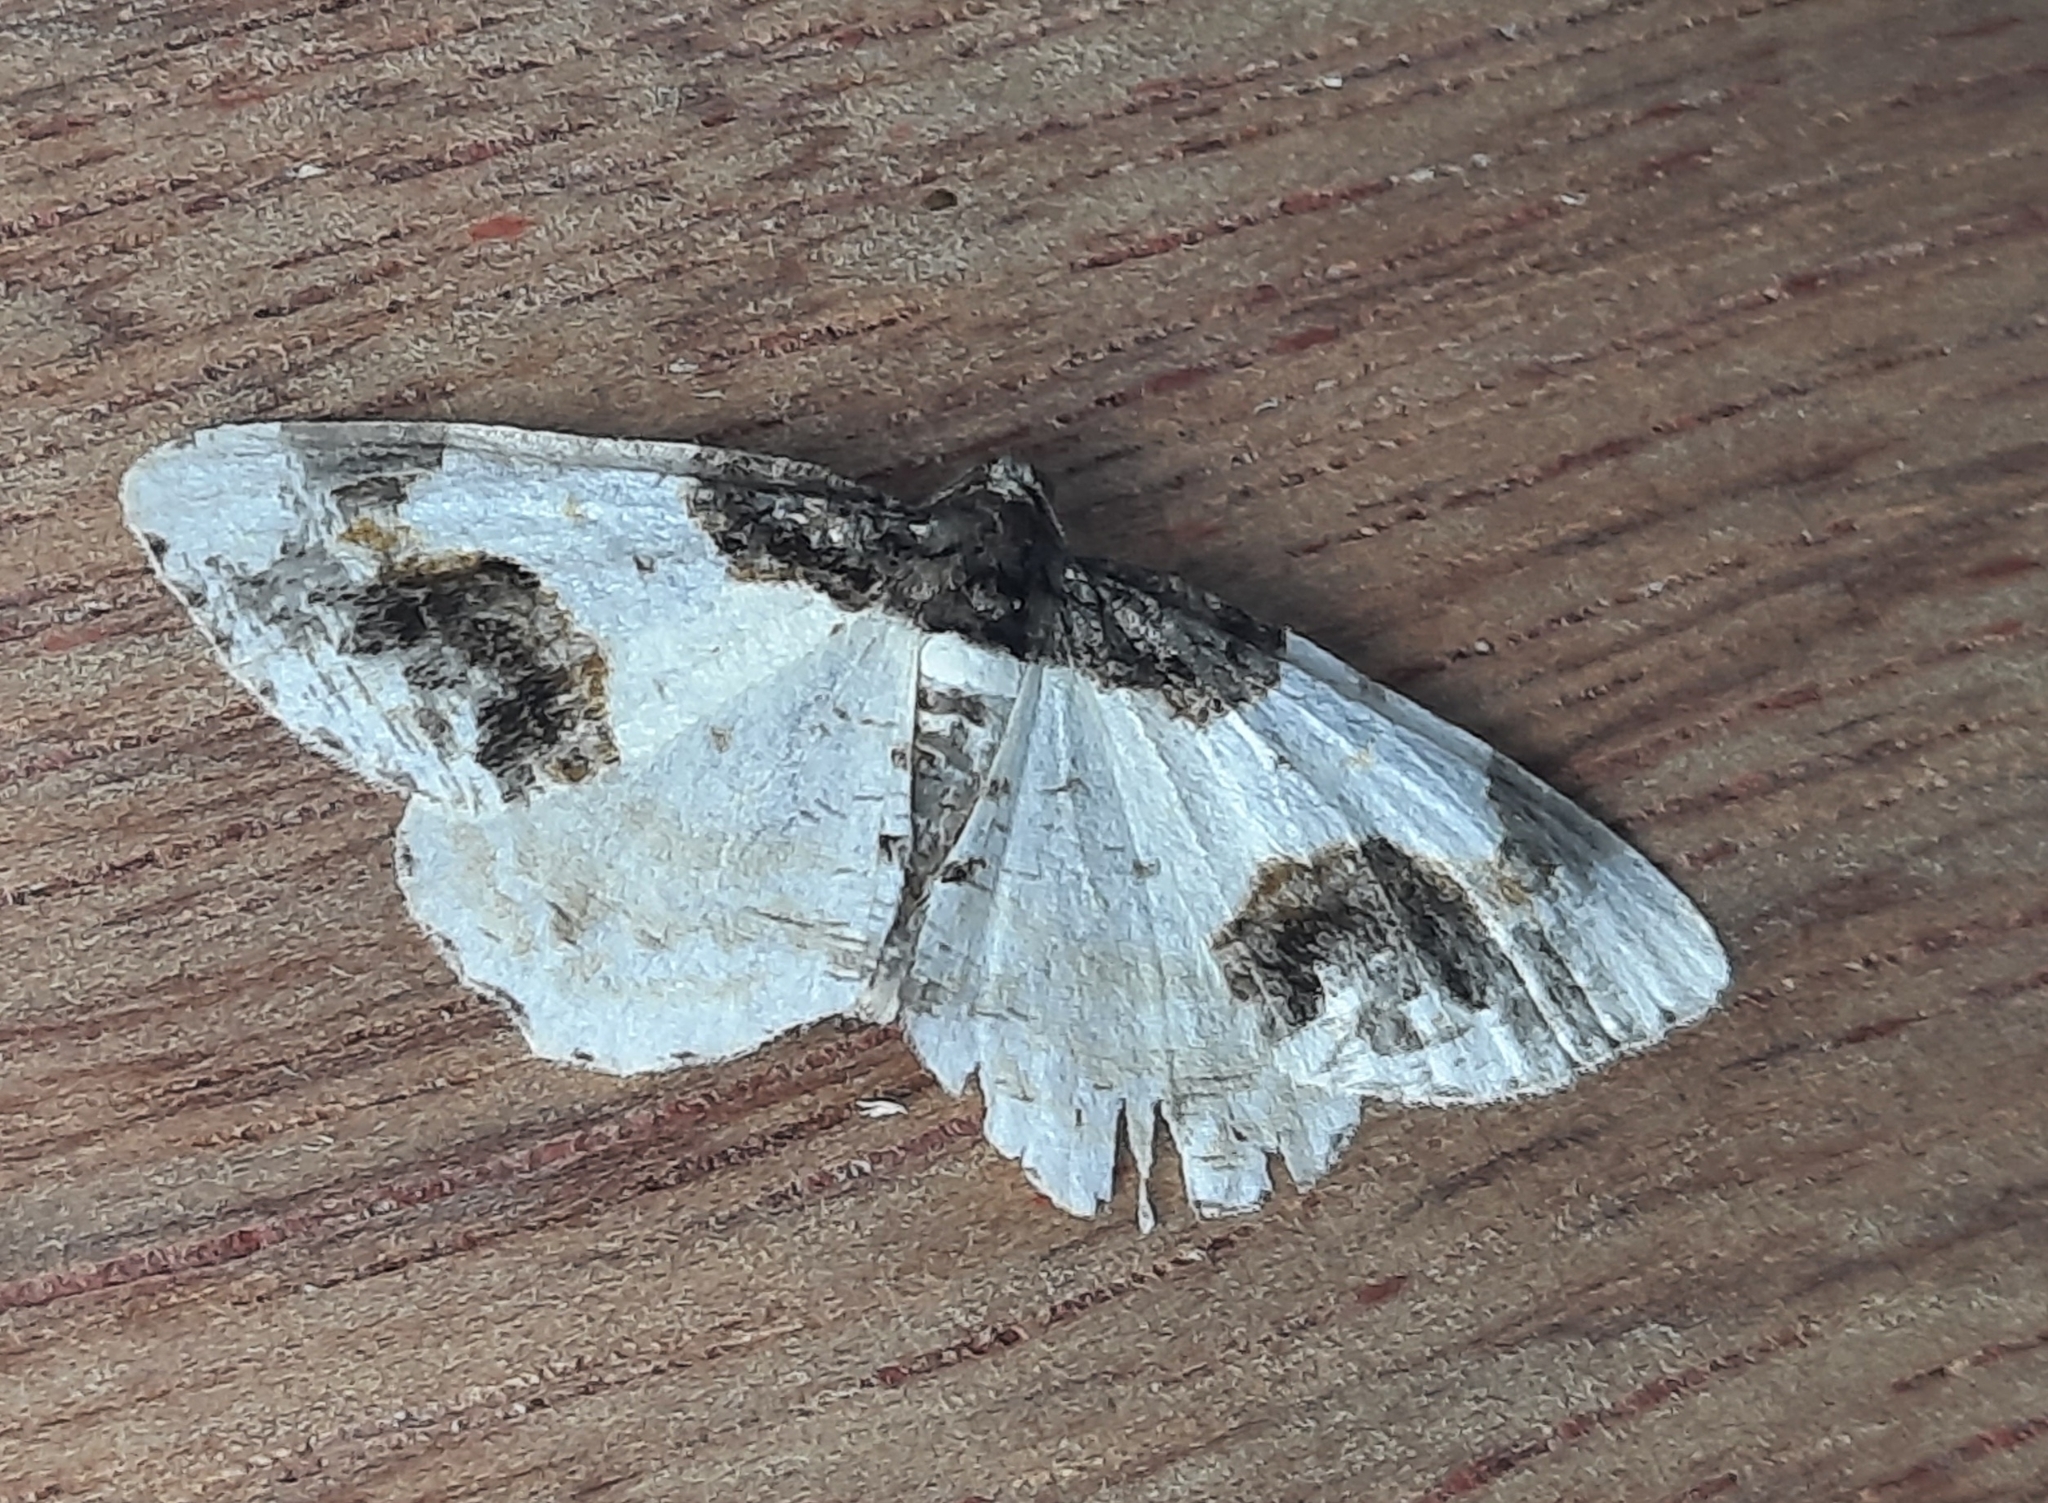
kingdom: Animalia
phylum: Arthropoda
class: Insecta
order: Lepidoptera
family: Geometridae
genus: Ligdia
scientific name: Ligdia adustata
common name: Scorched carpet
